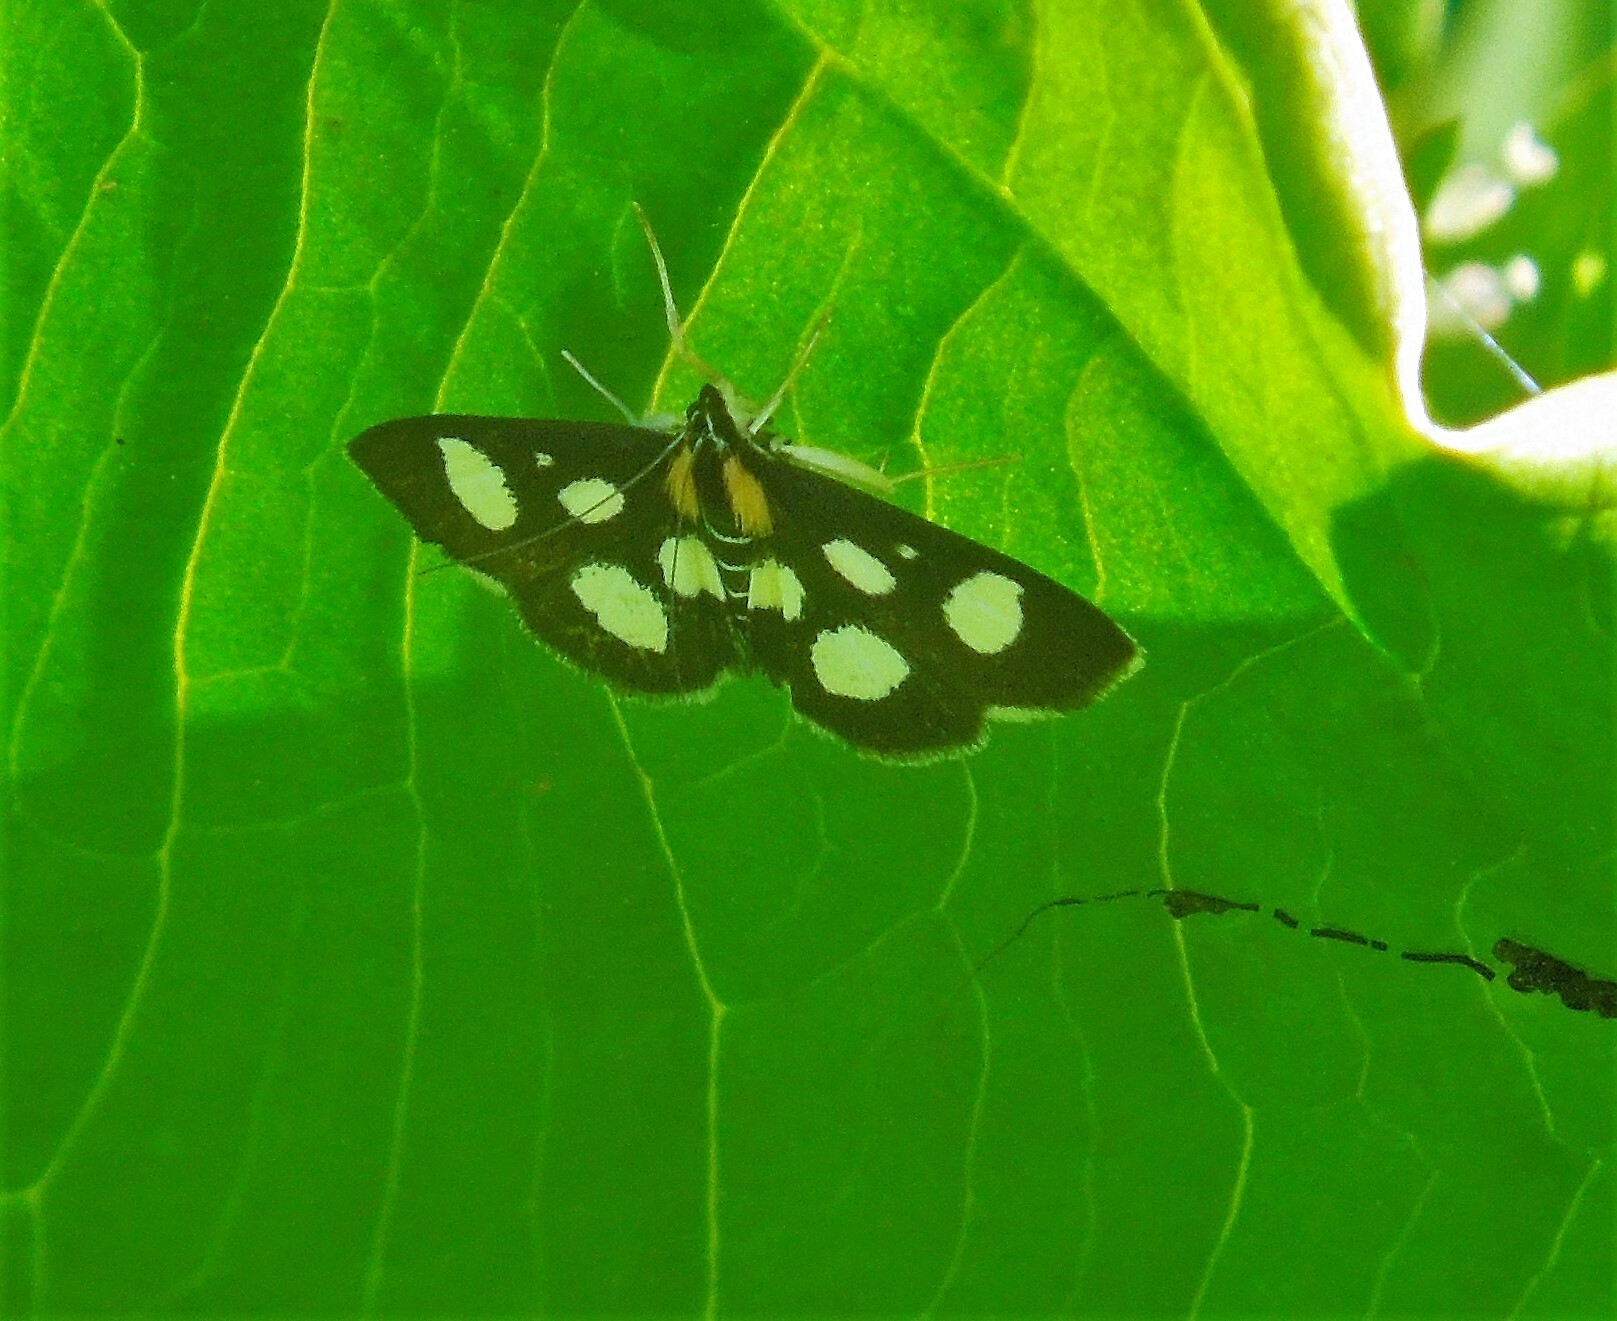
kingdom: Animalia
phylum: Arthropoda
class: Insecta
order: Lepidoptera
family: Crambidae
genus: Anania
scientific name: Anania funebris
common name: White-spotted sable moth
